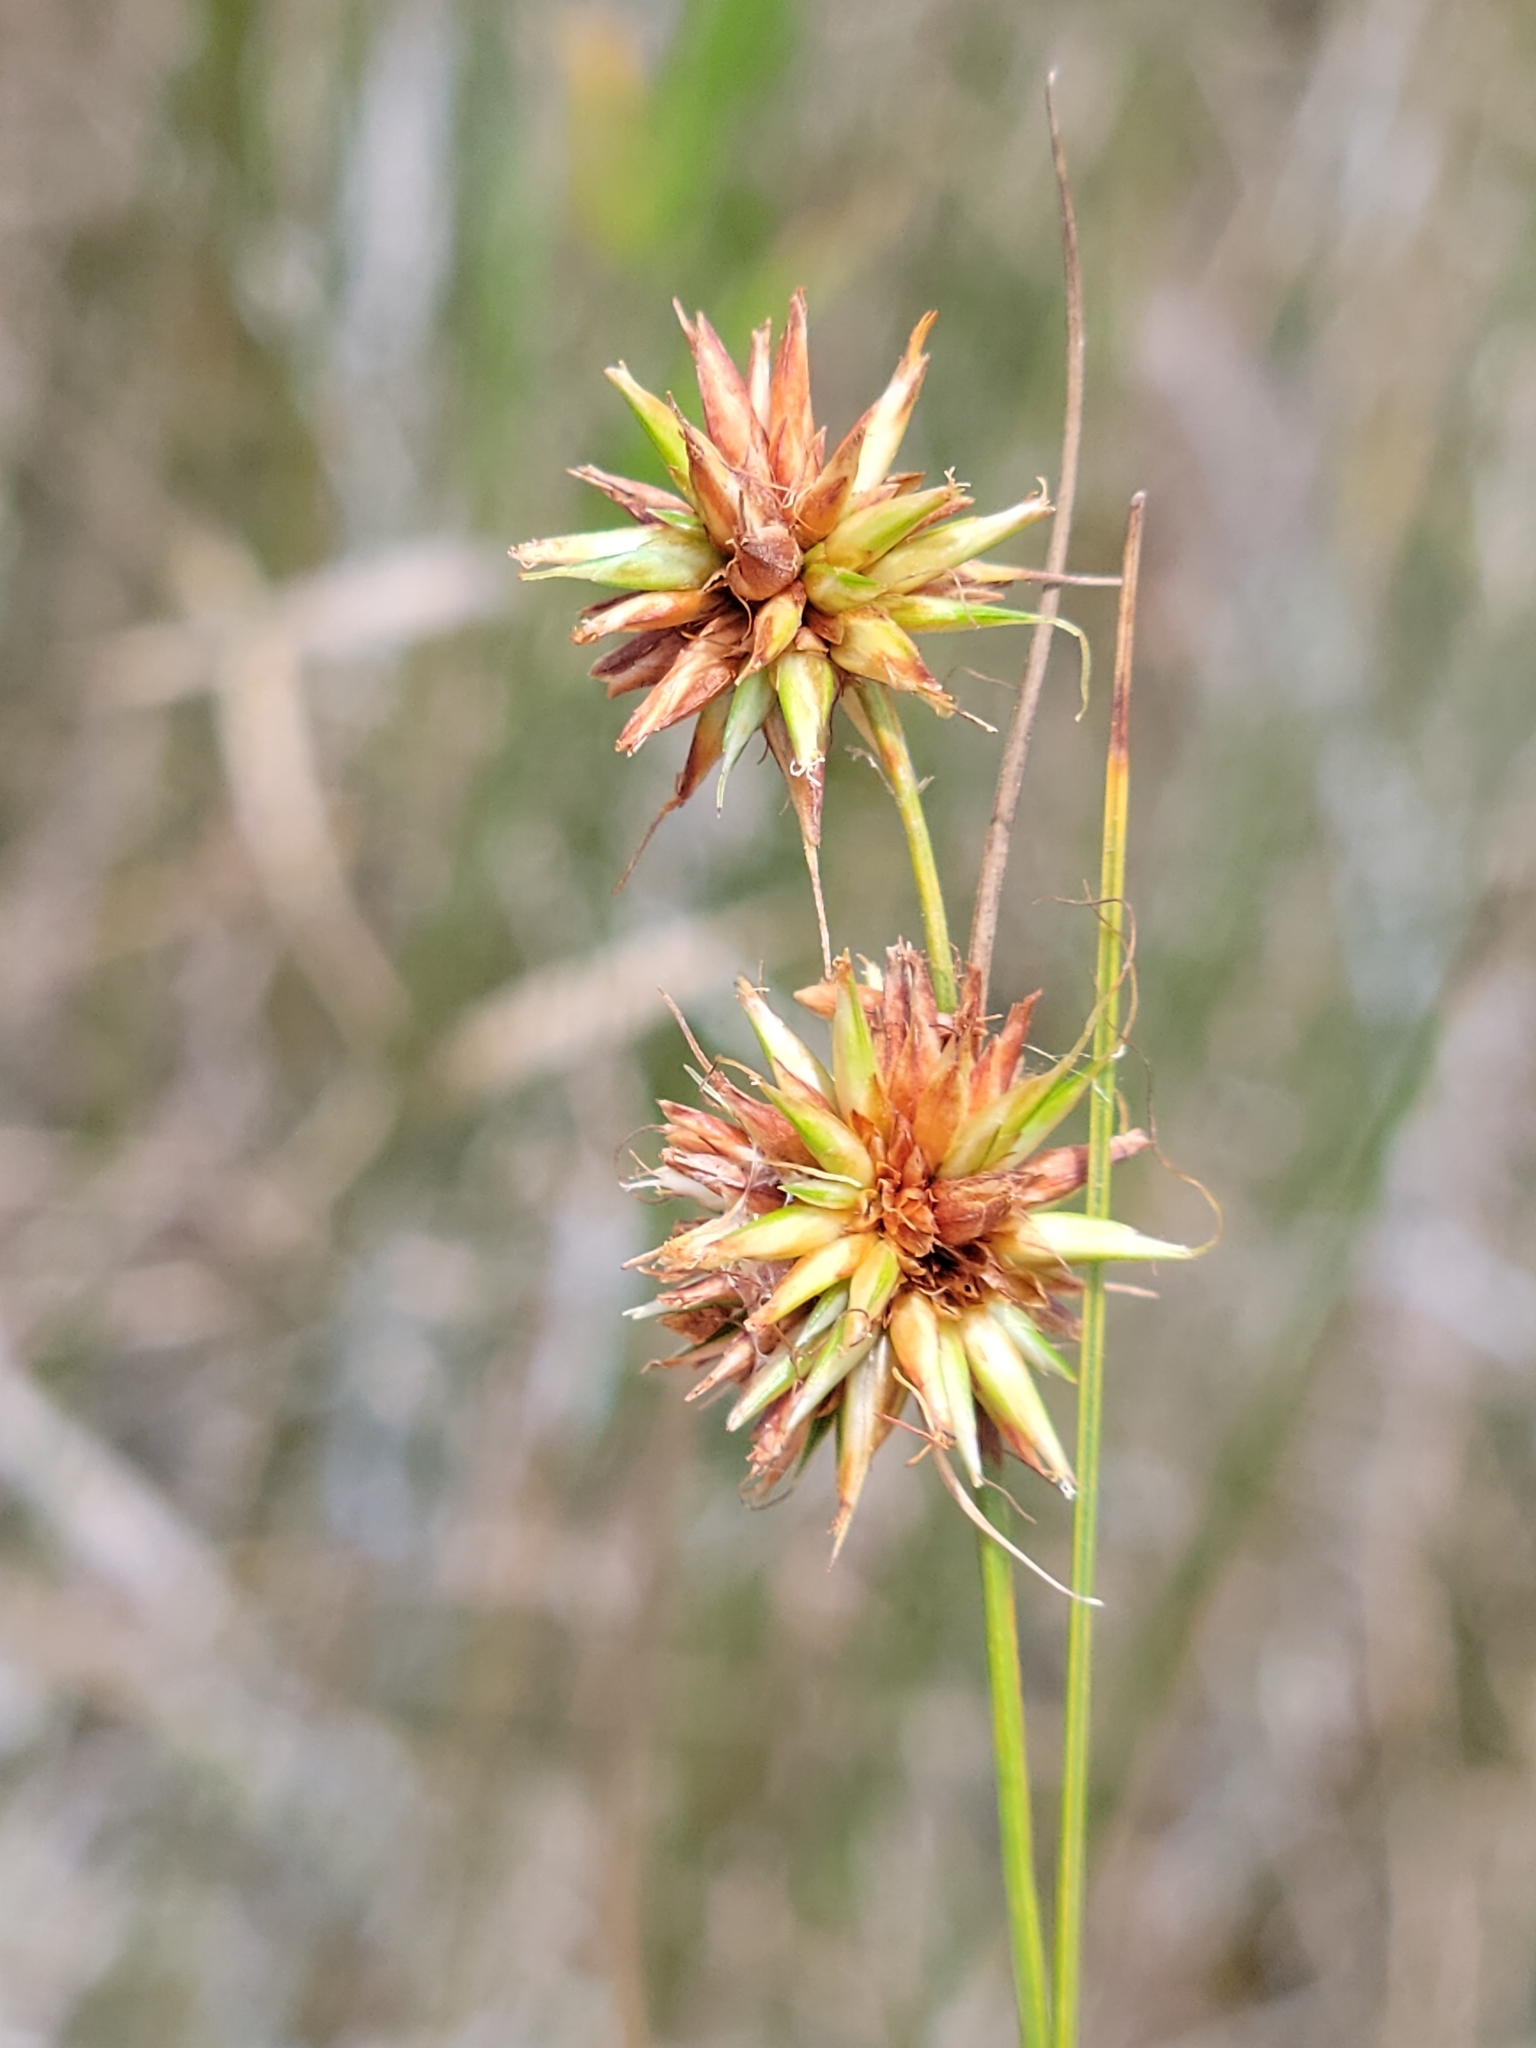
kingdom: Plantae
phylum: Tracheophyta
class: Liliopsida
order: Poales
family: Cyperaceae
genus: Rhynchospora
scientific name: Rhynchospora tracyi
